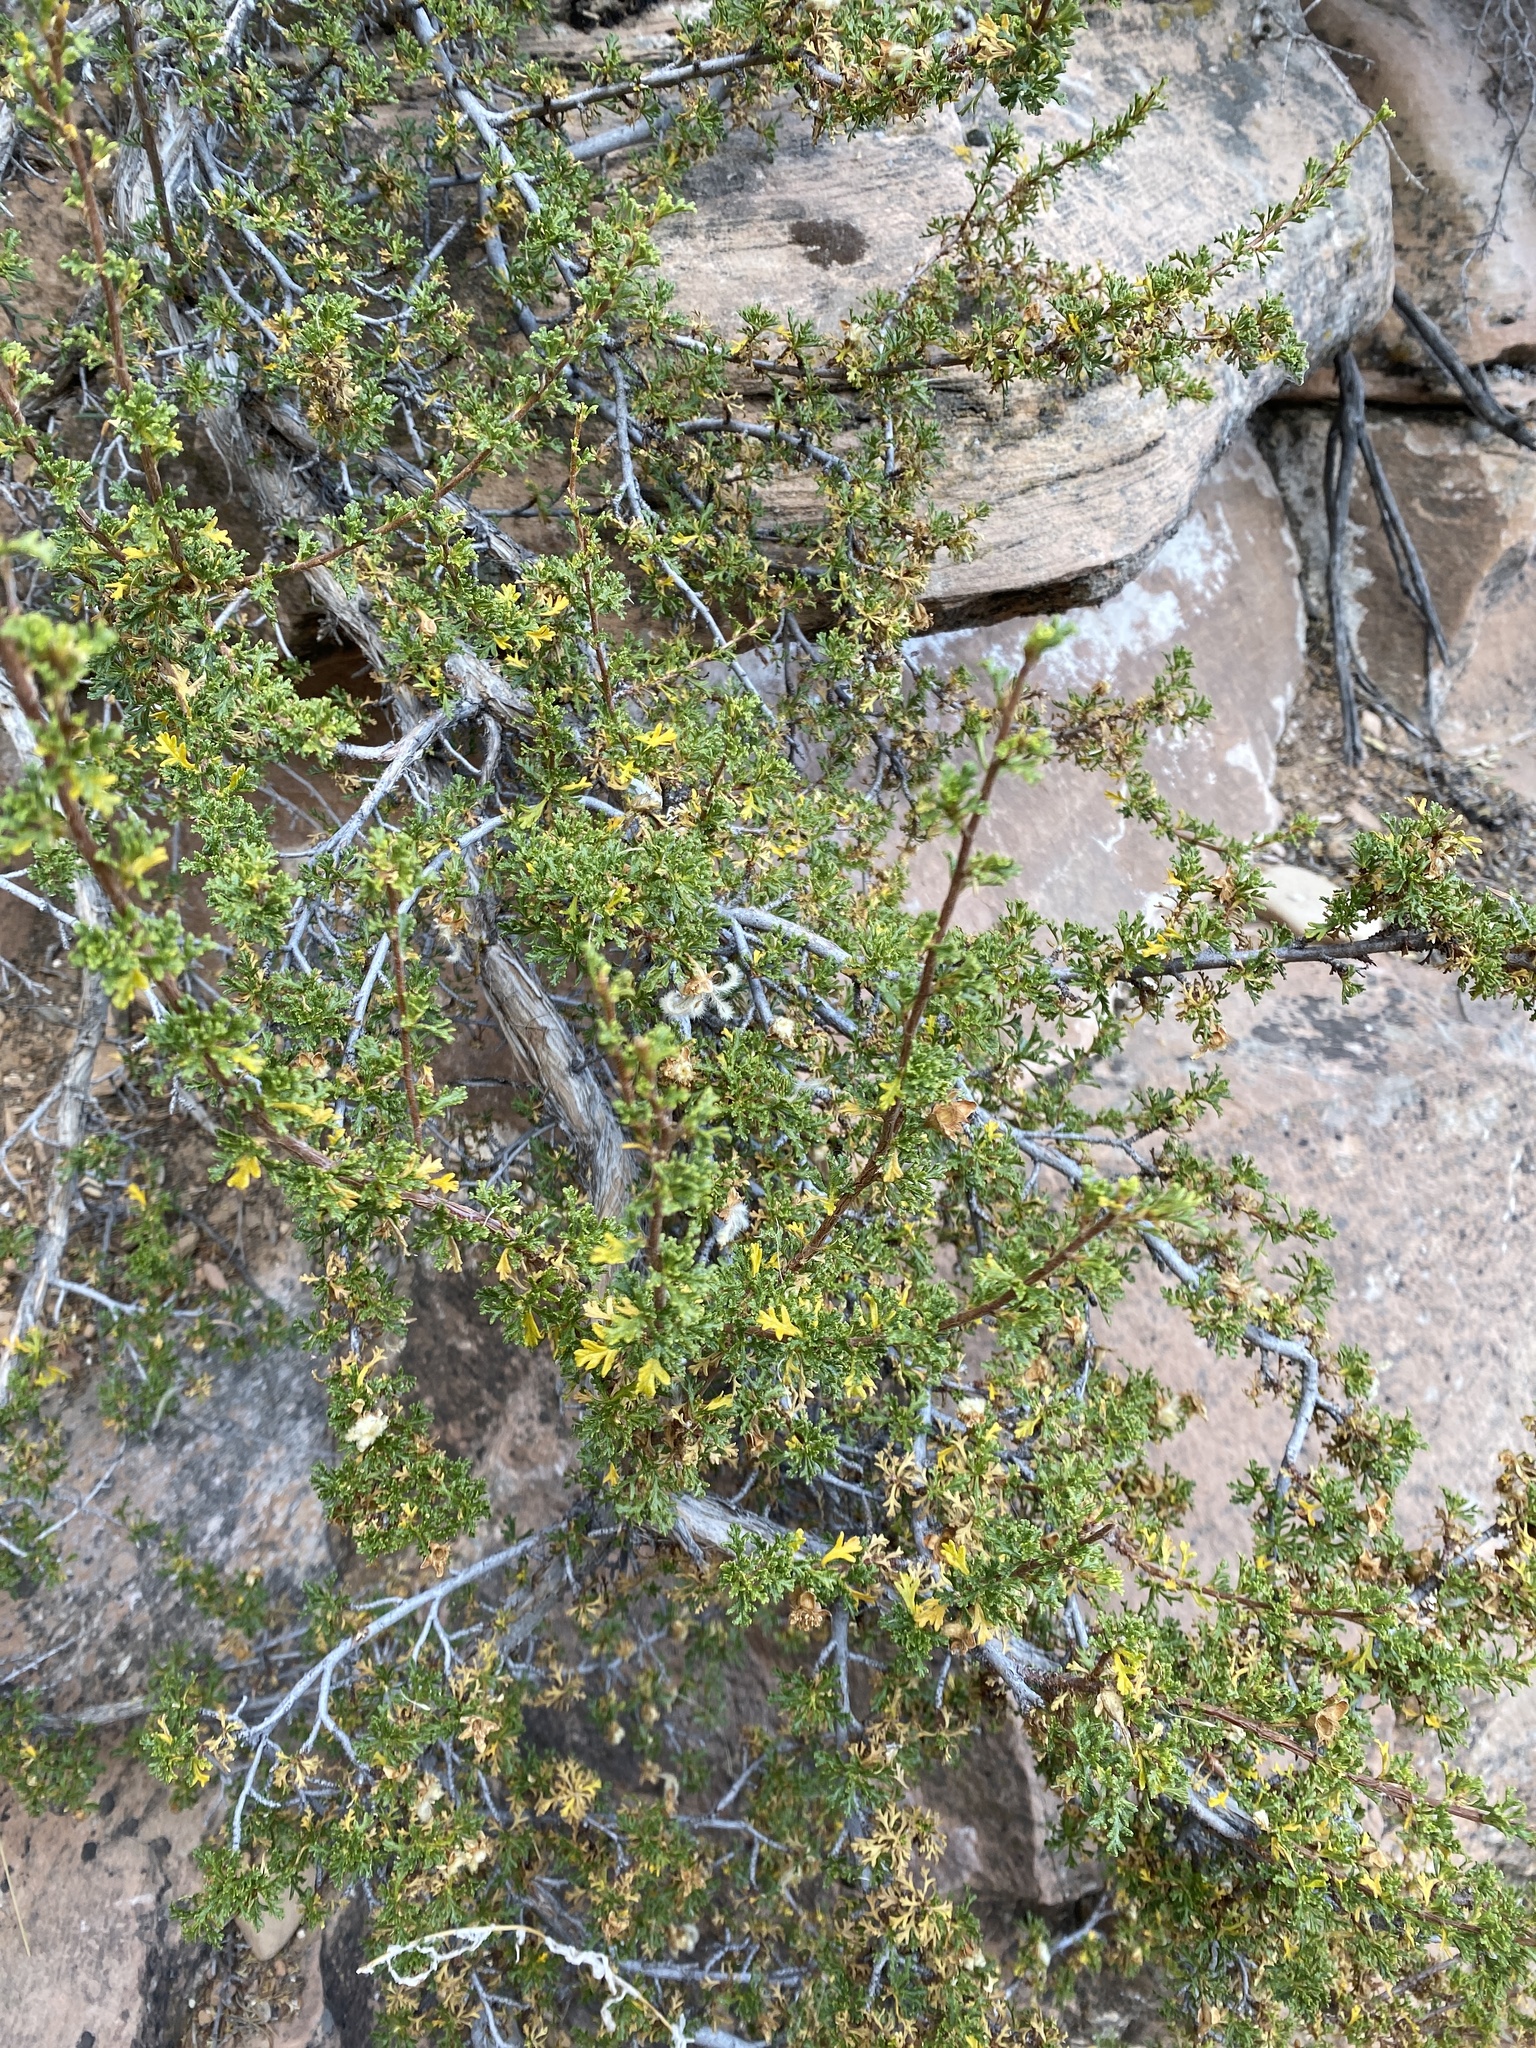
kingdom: Plantae
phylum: Tracheophyta
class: Magnoliopsida
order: Rosales
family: Rosaceae
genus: Purshia
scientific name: Purshia stansburiana
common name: Stansbury's cliffrose
